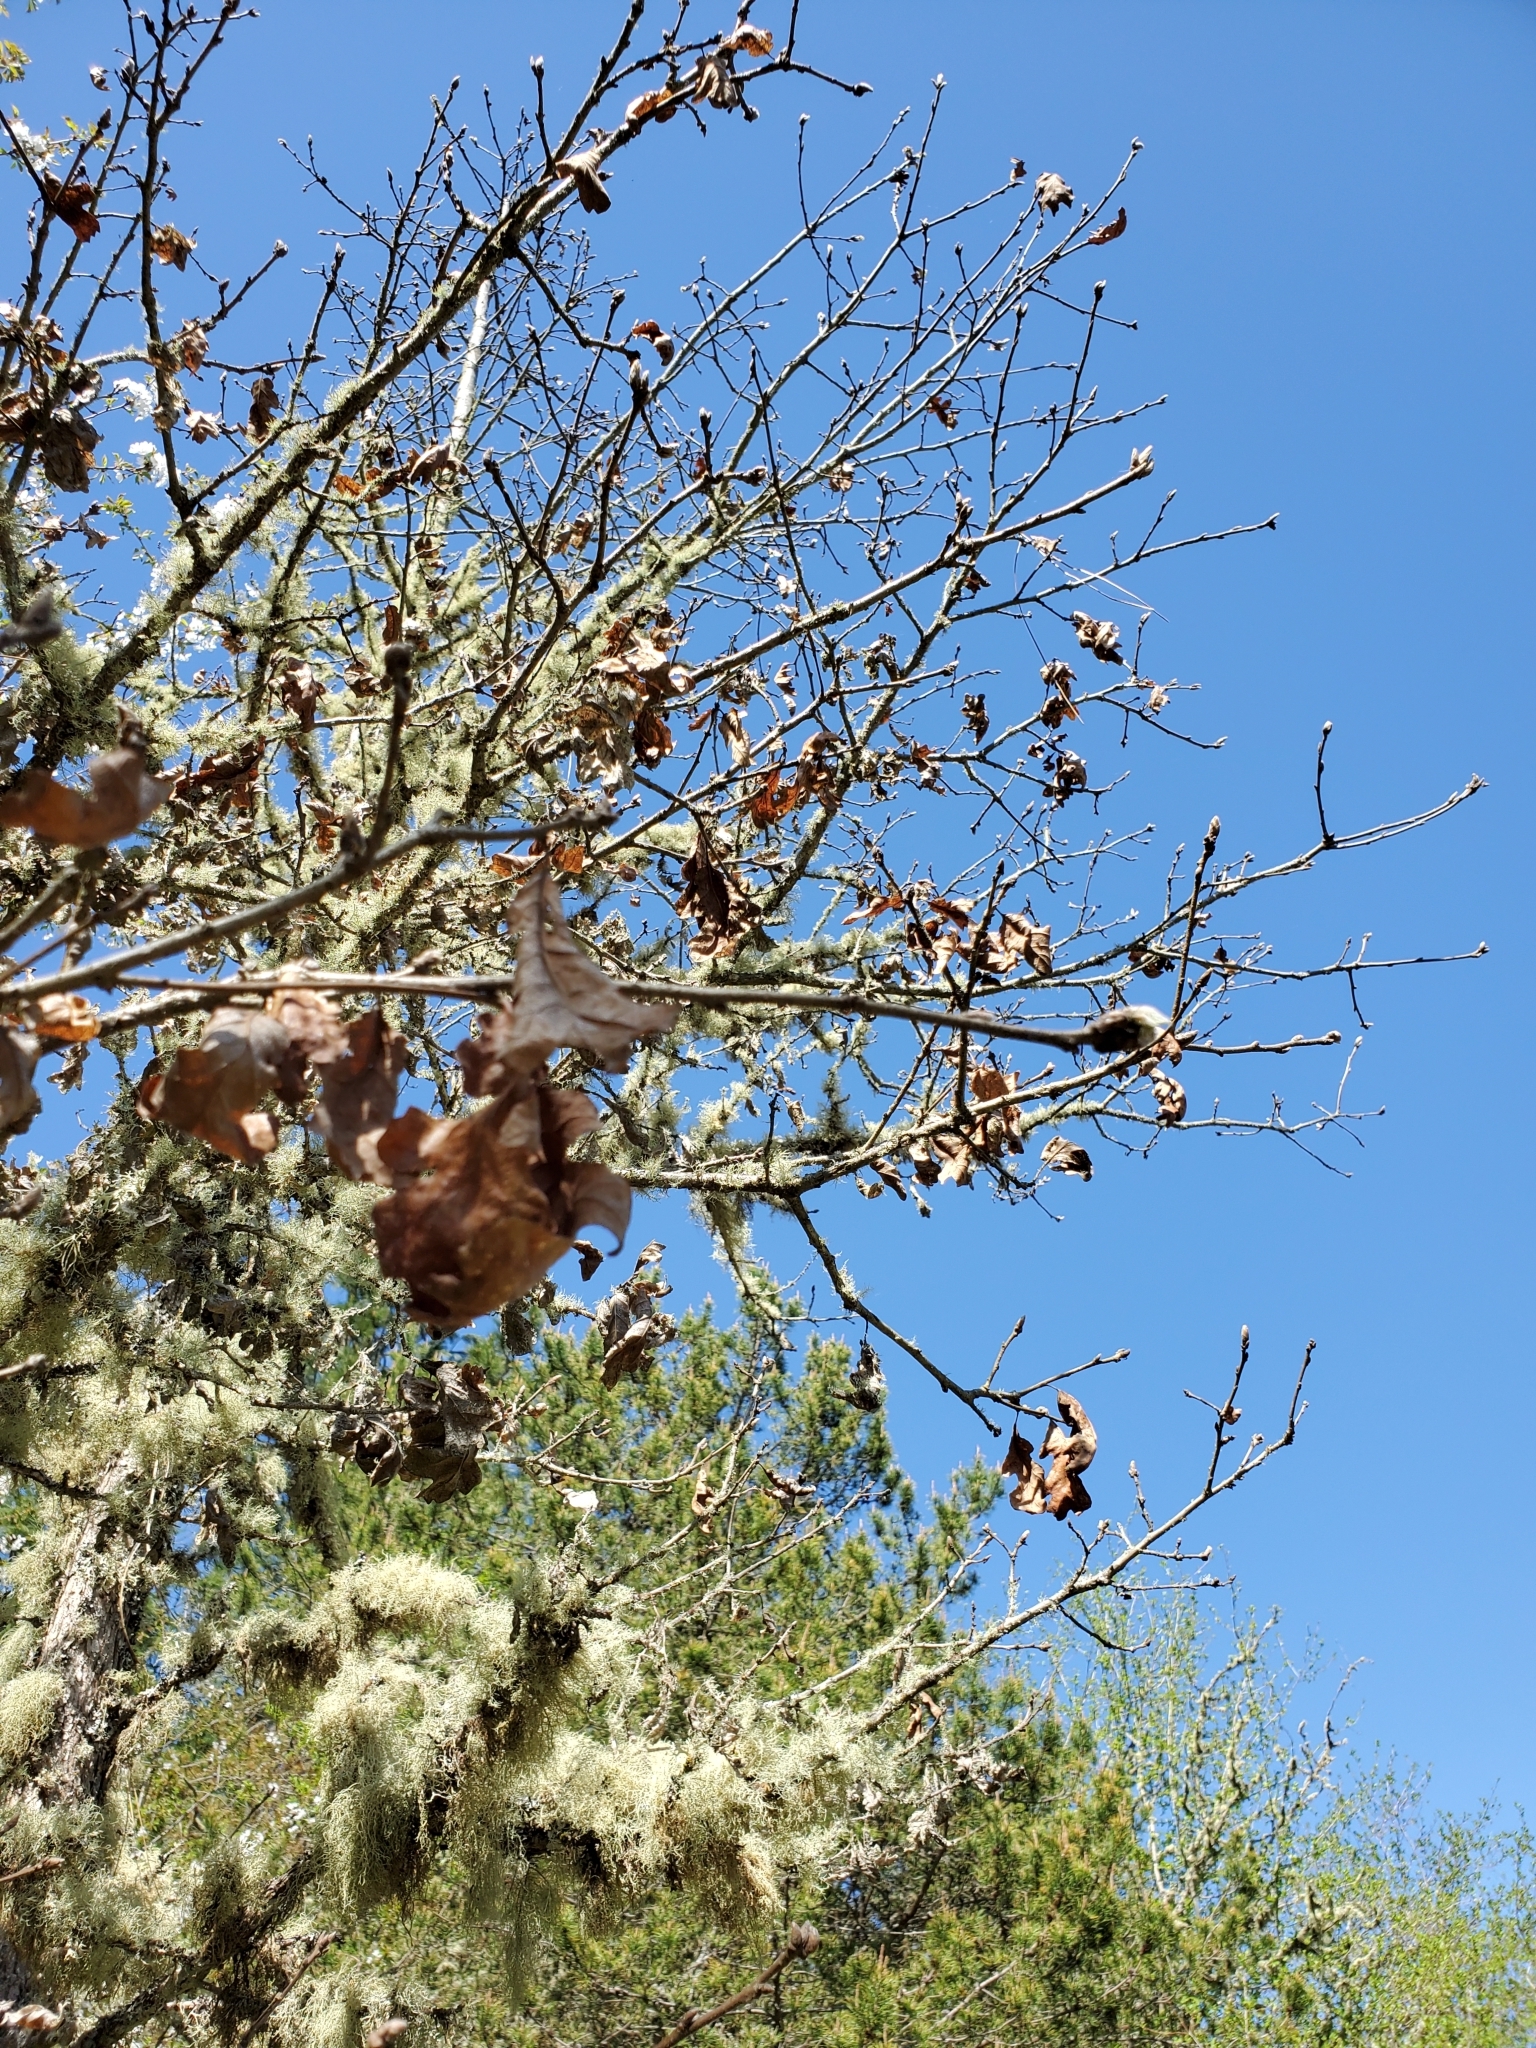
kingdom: Plantae
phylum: Tracheophyta
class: Magnoliopsida
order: Fagales
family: Fagaceae
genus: Quercus
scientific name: Quercus garryana
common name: Garry oak
